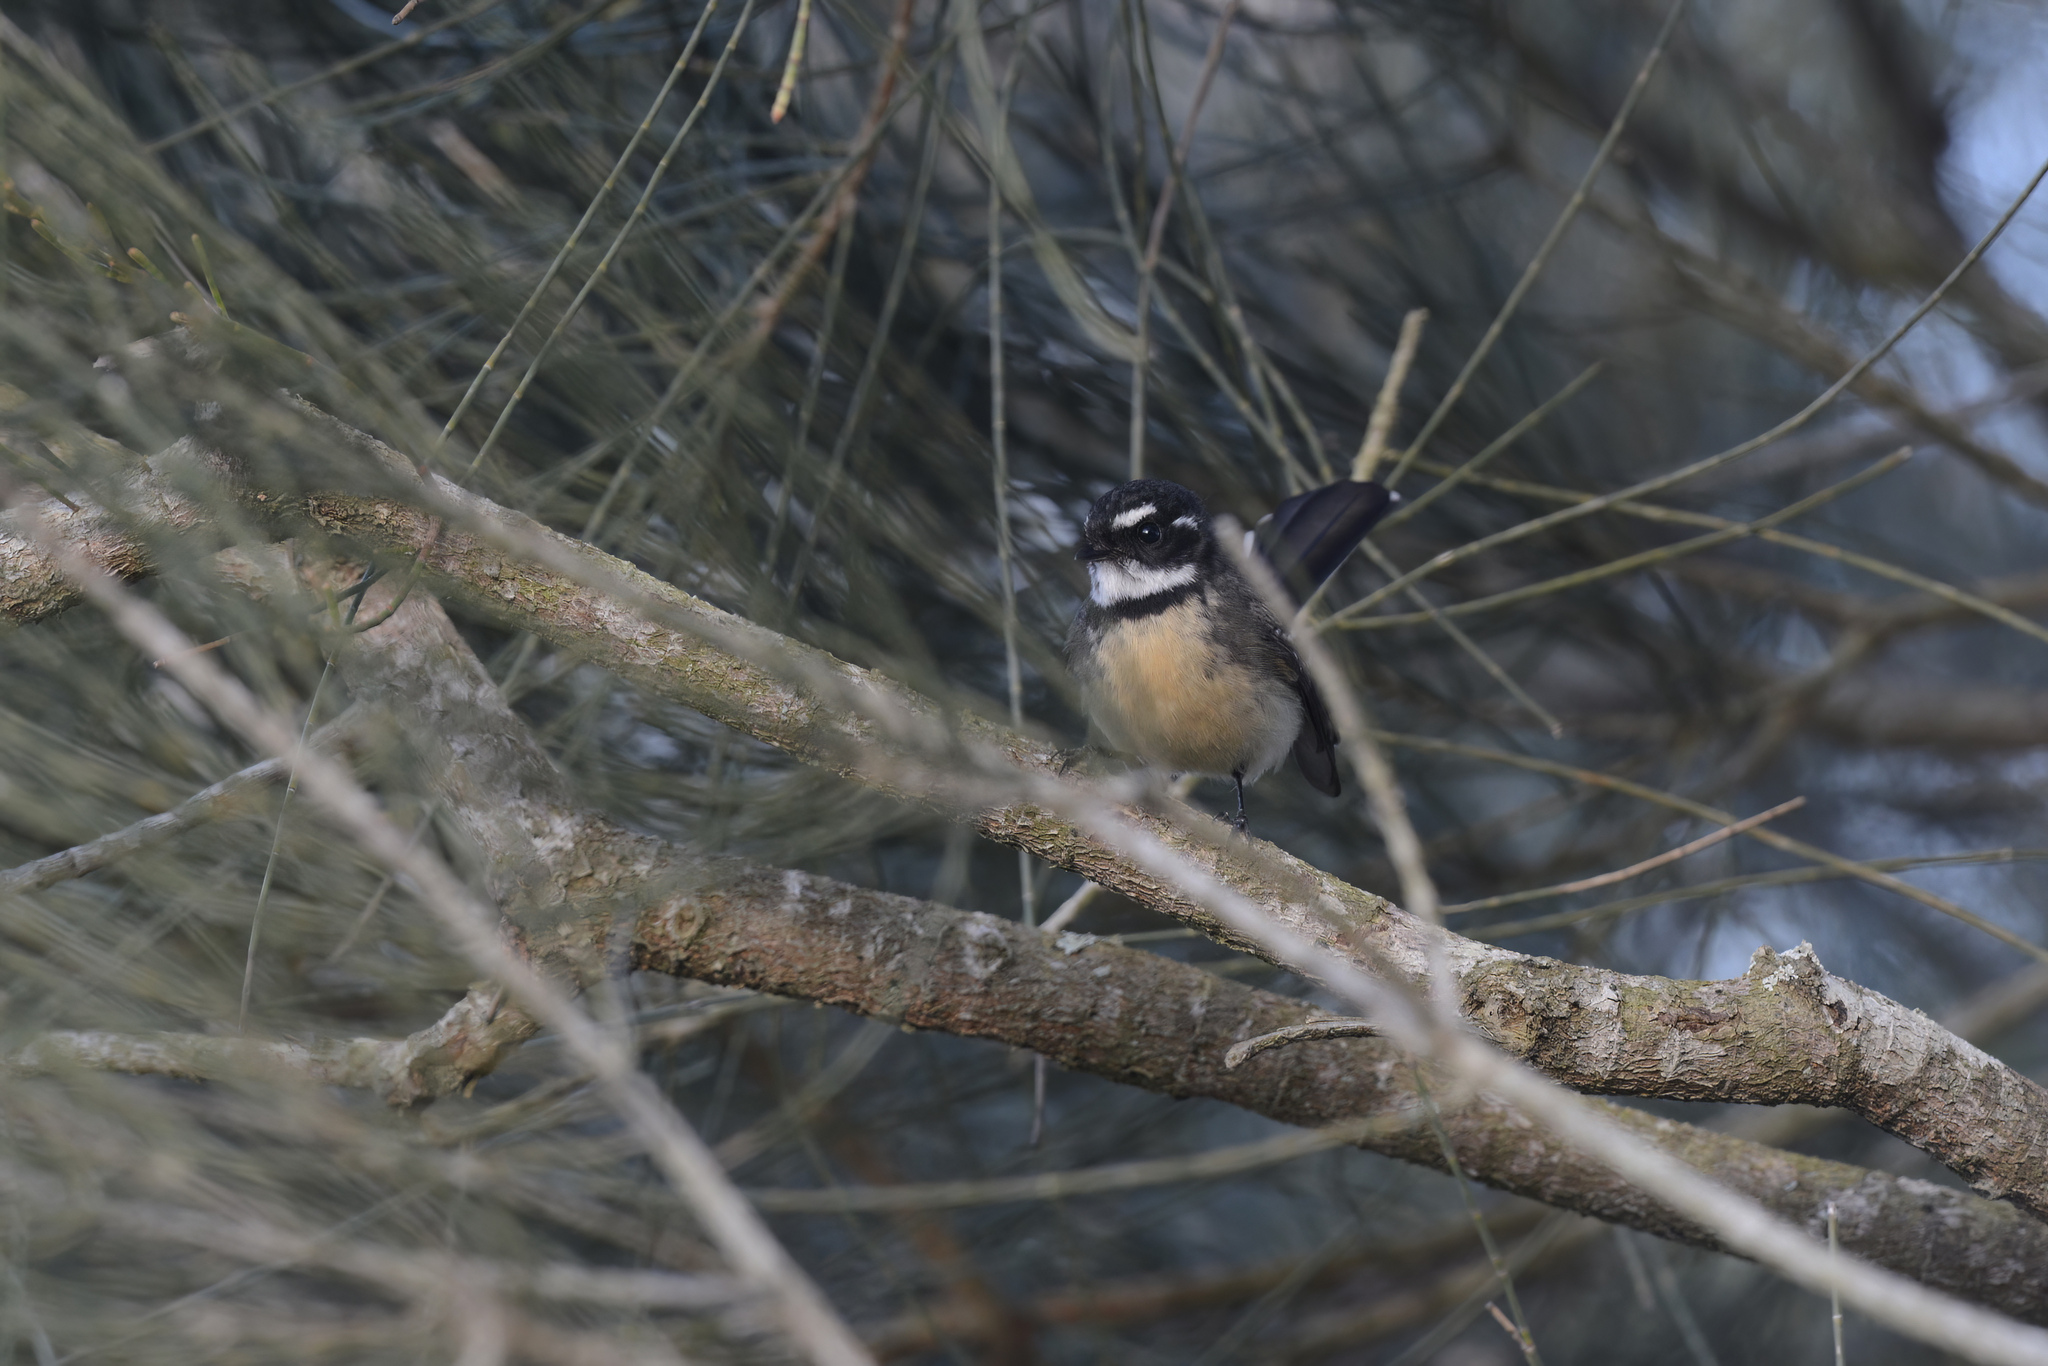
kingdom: Animalia
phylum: Chordata
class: Aves
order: Passeriformes
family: Rhipiduridae
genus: Rhipidura
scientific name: Rhipidura albiscapa
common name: Grey fantail
